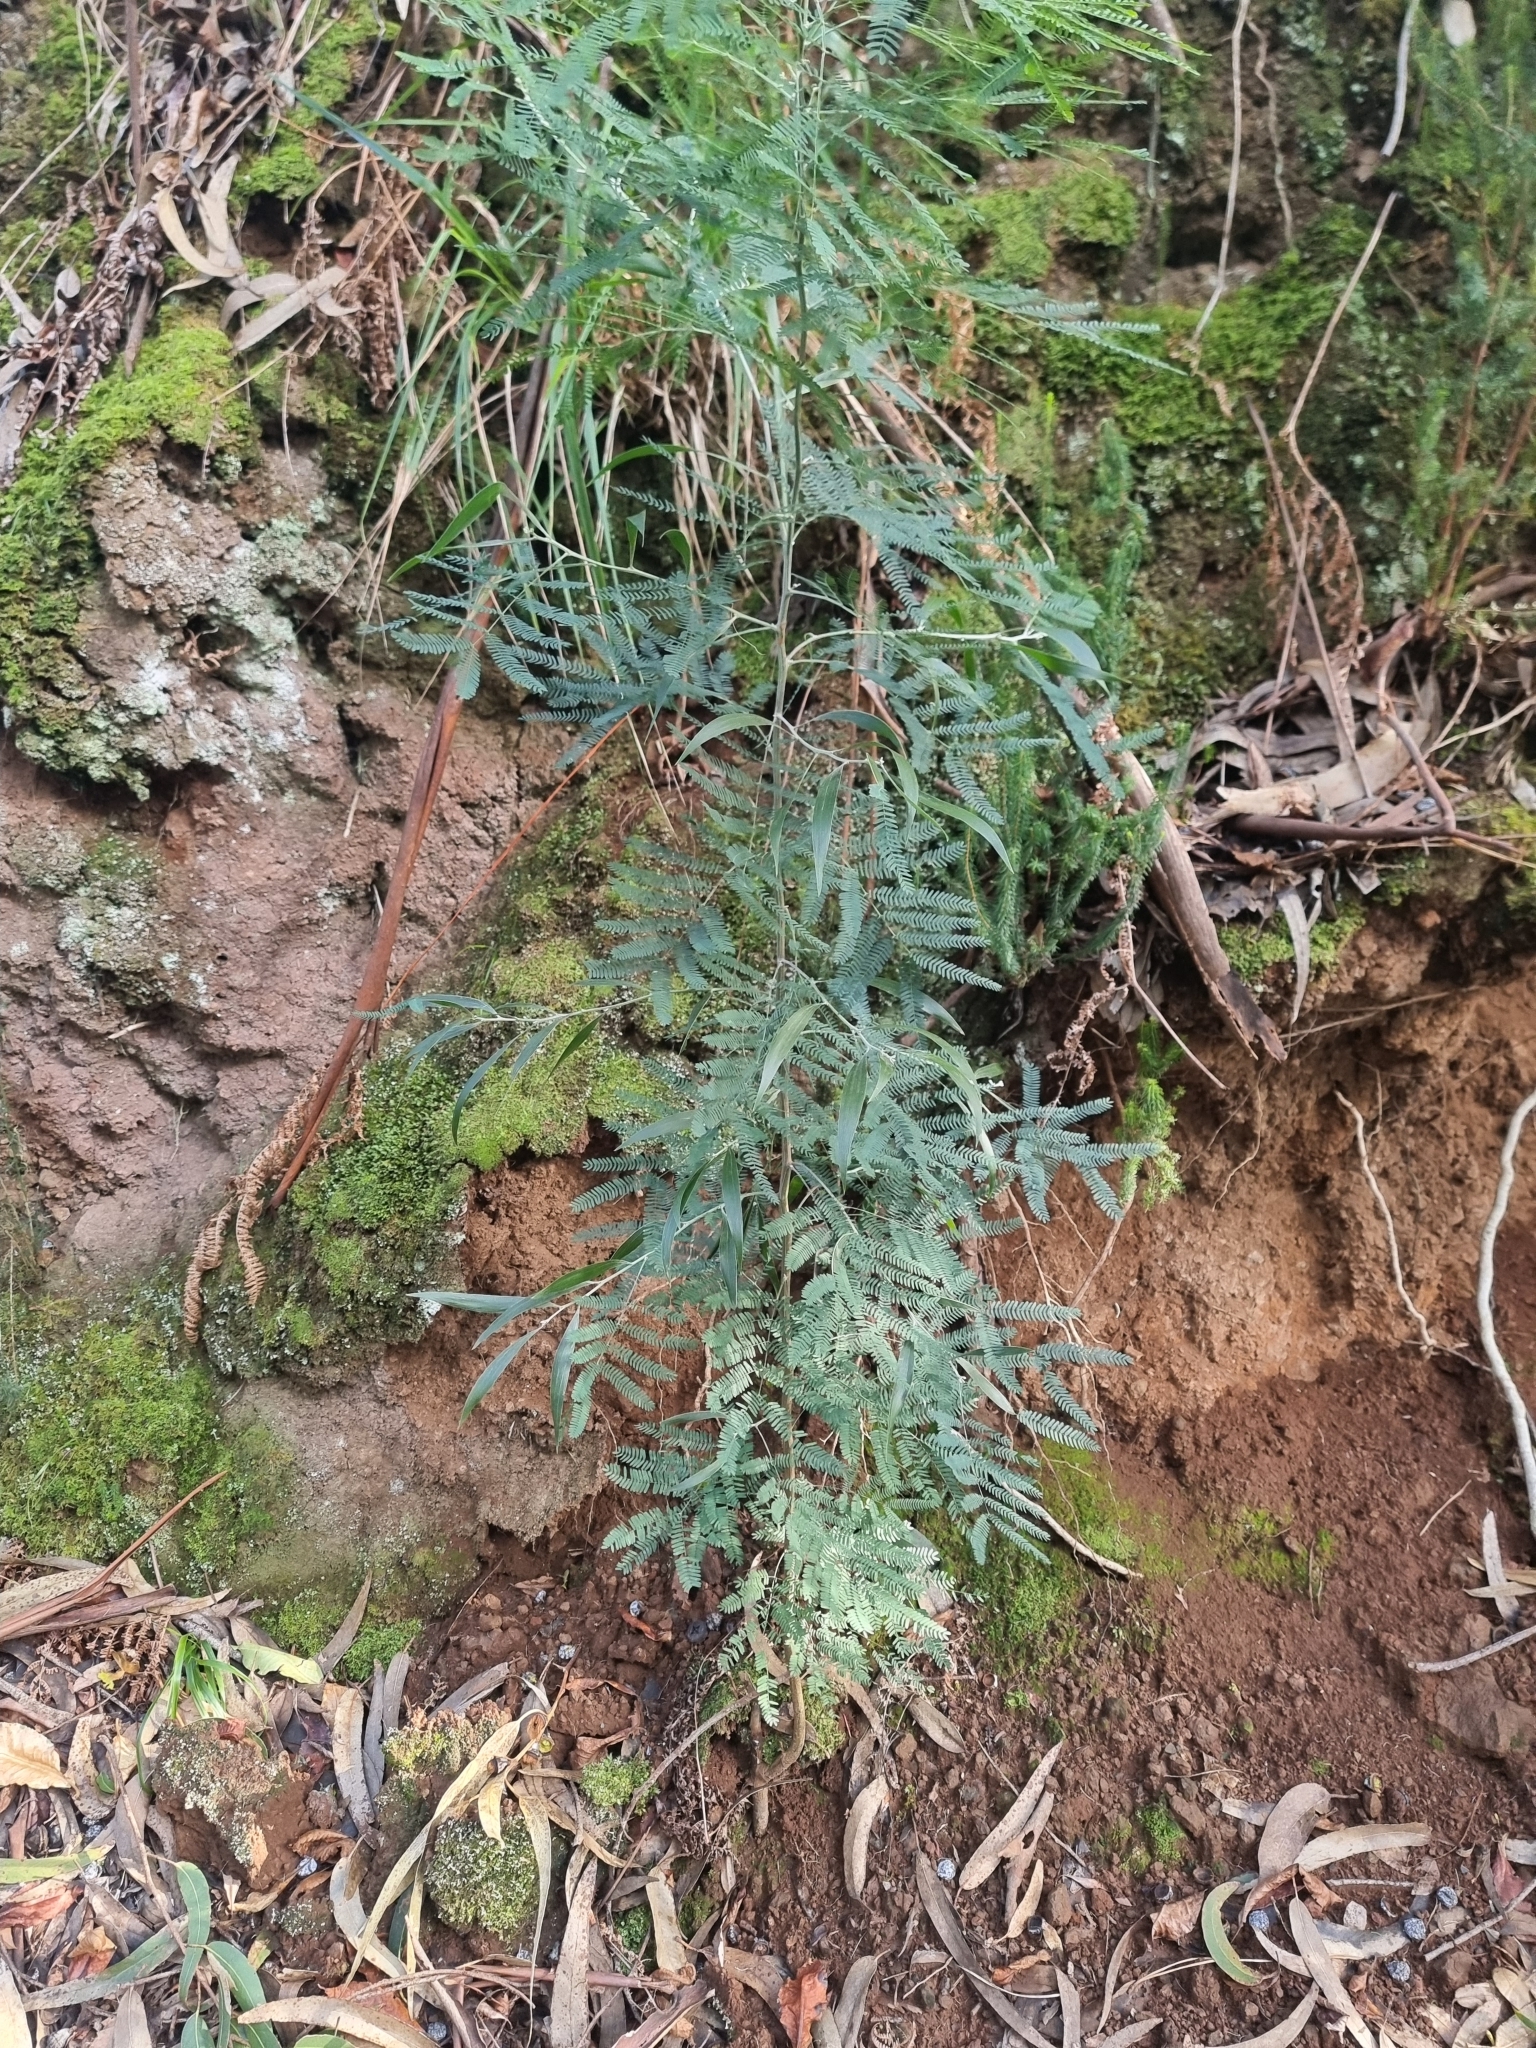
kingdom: Plantae
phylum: Tracheophyta
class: Magnoliopsida
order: Fabales
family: Fabaceae
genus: Acacia
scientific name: Acacia melanoxylon
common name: Blackwood
